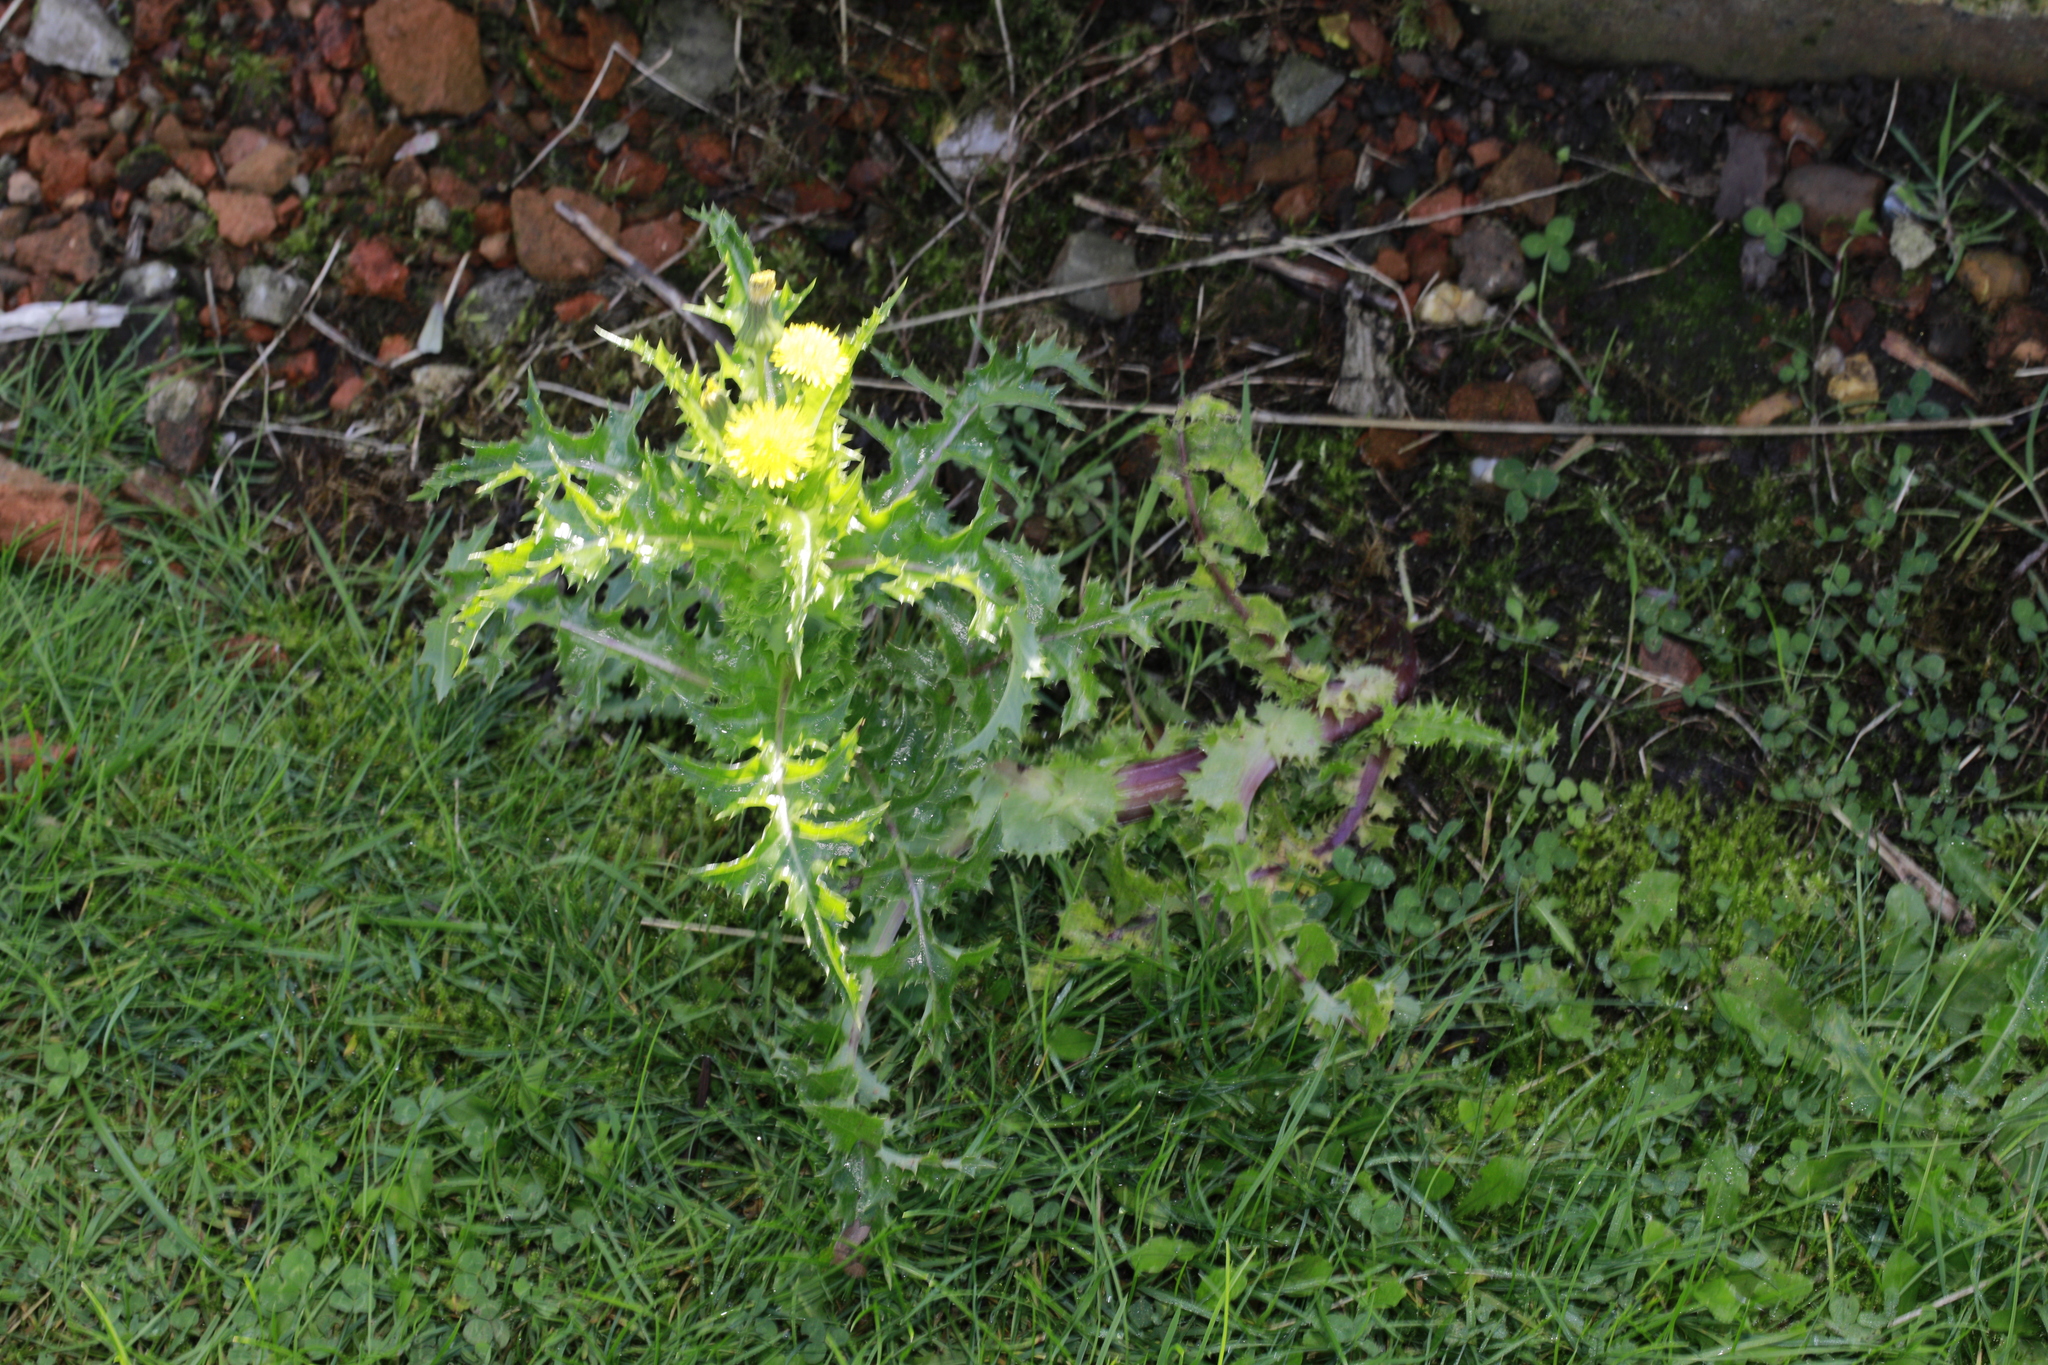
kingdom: Plantae
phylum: Tracheophyta
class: Magnoliopsida
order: Asterales
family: Asteraceae
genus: Sonchus
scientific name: Sonchus asper
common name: Prickly sow-thistle
